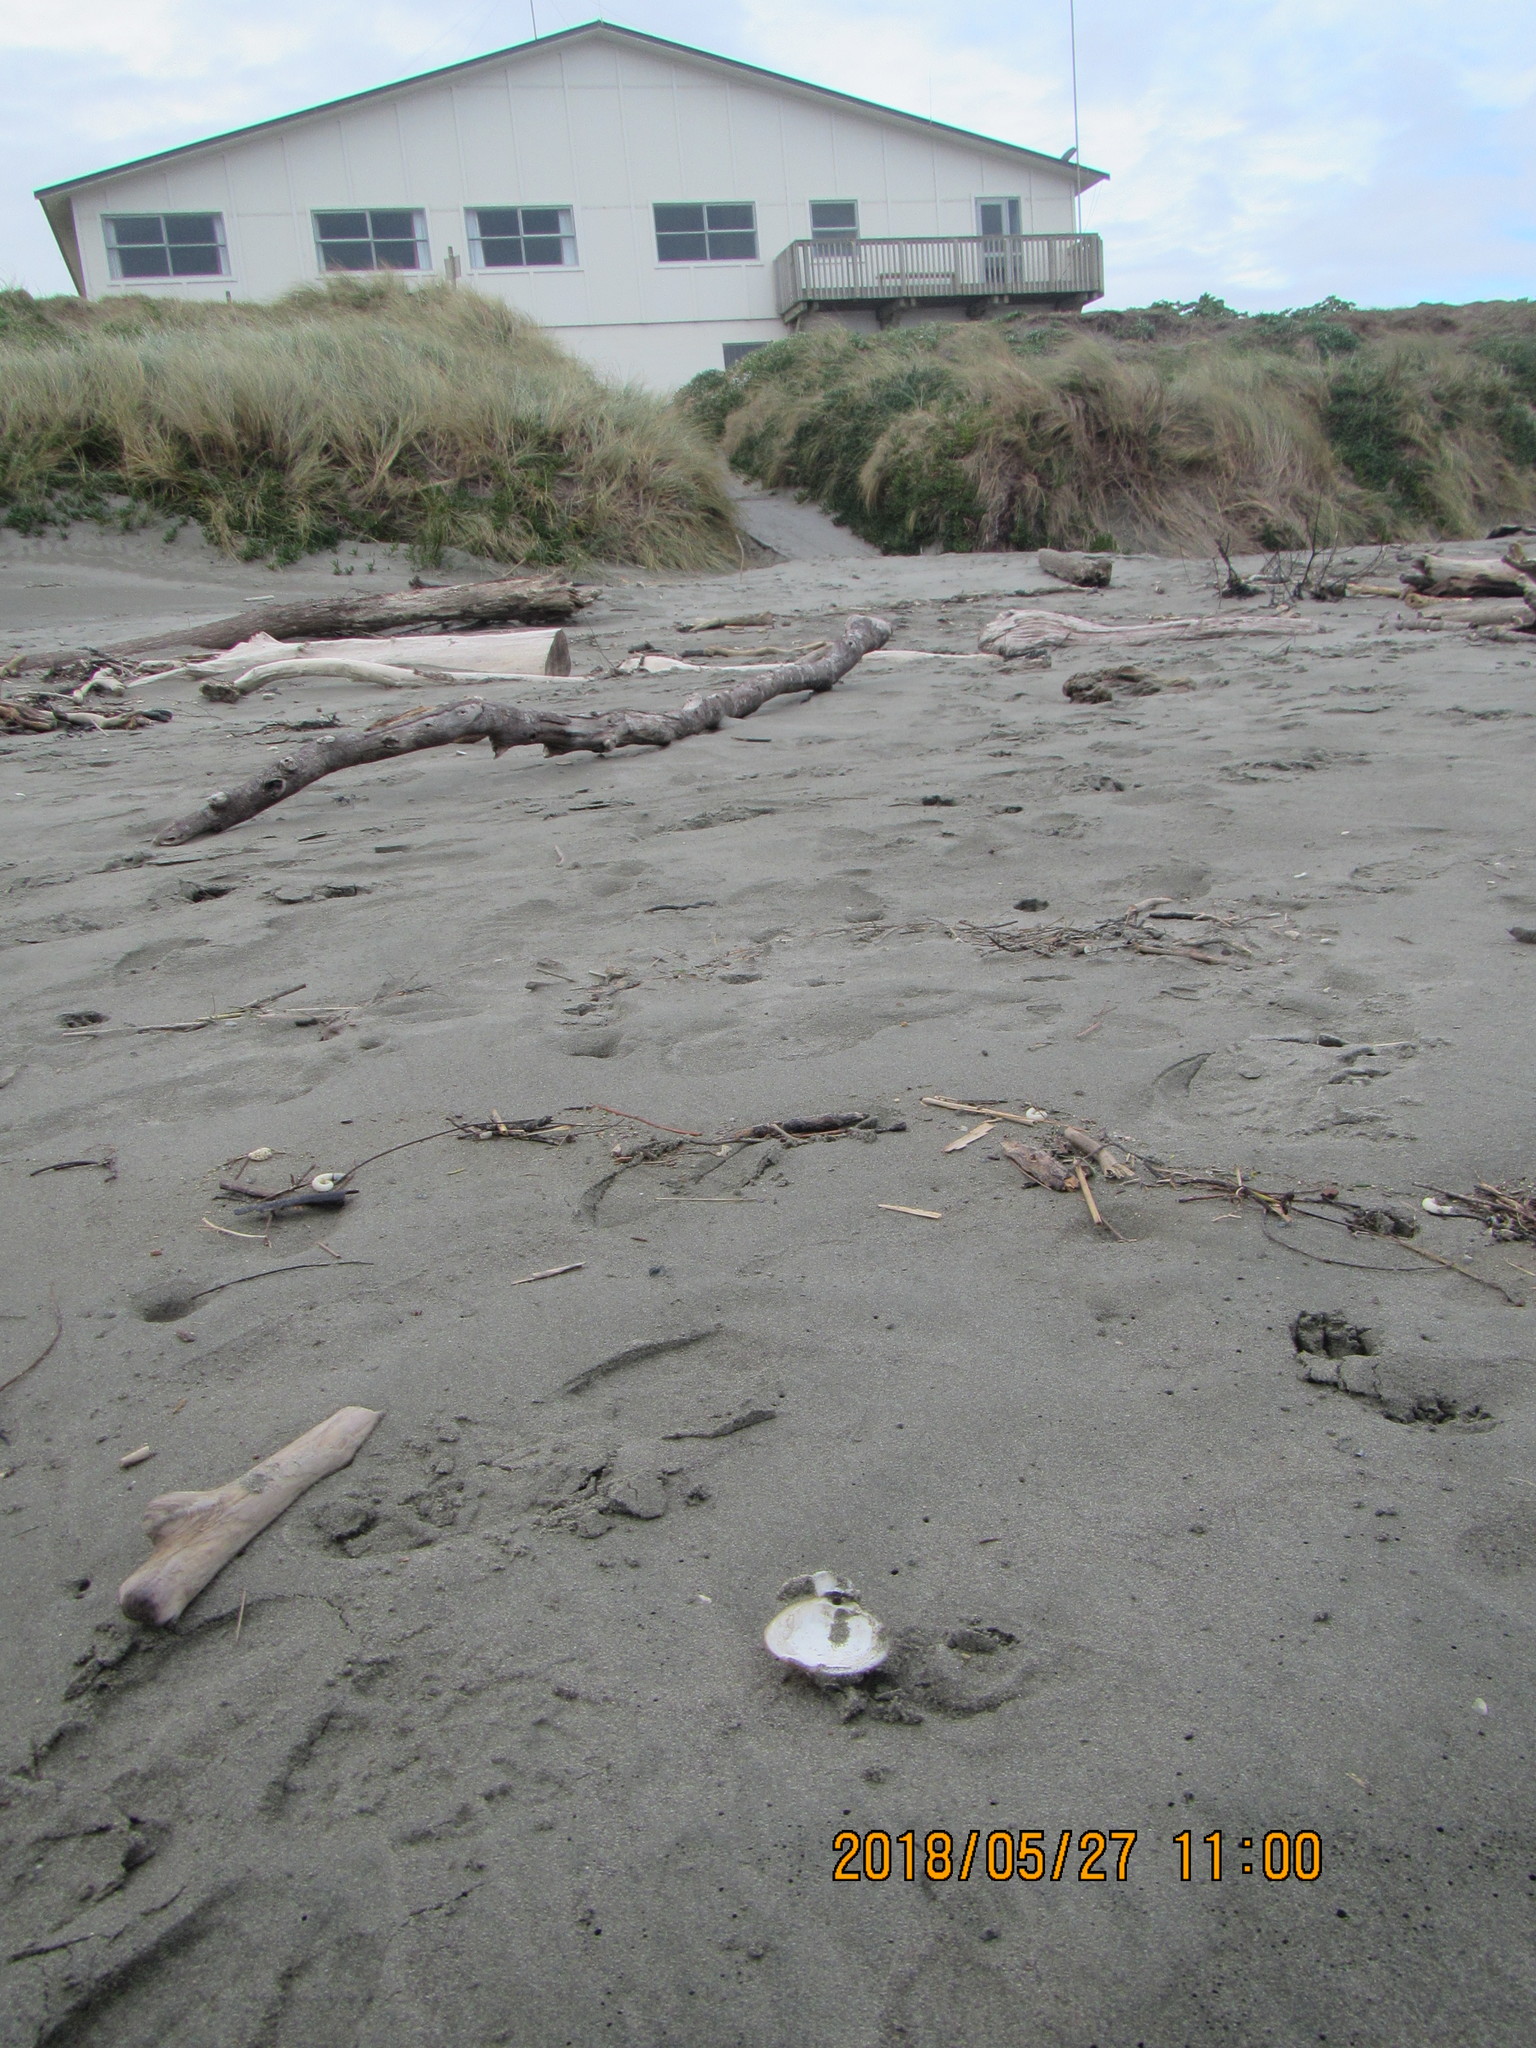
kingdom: Animalia
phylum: Mollusca
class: Bivalvia
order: Venerida
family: Mactridae
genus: Spisula
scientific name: Spisula discors
